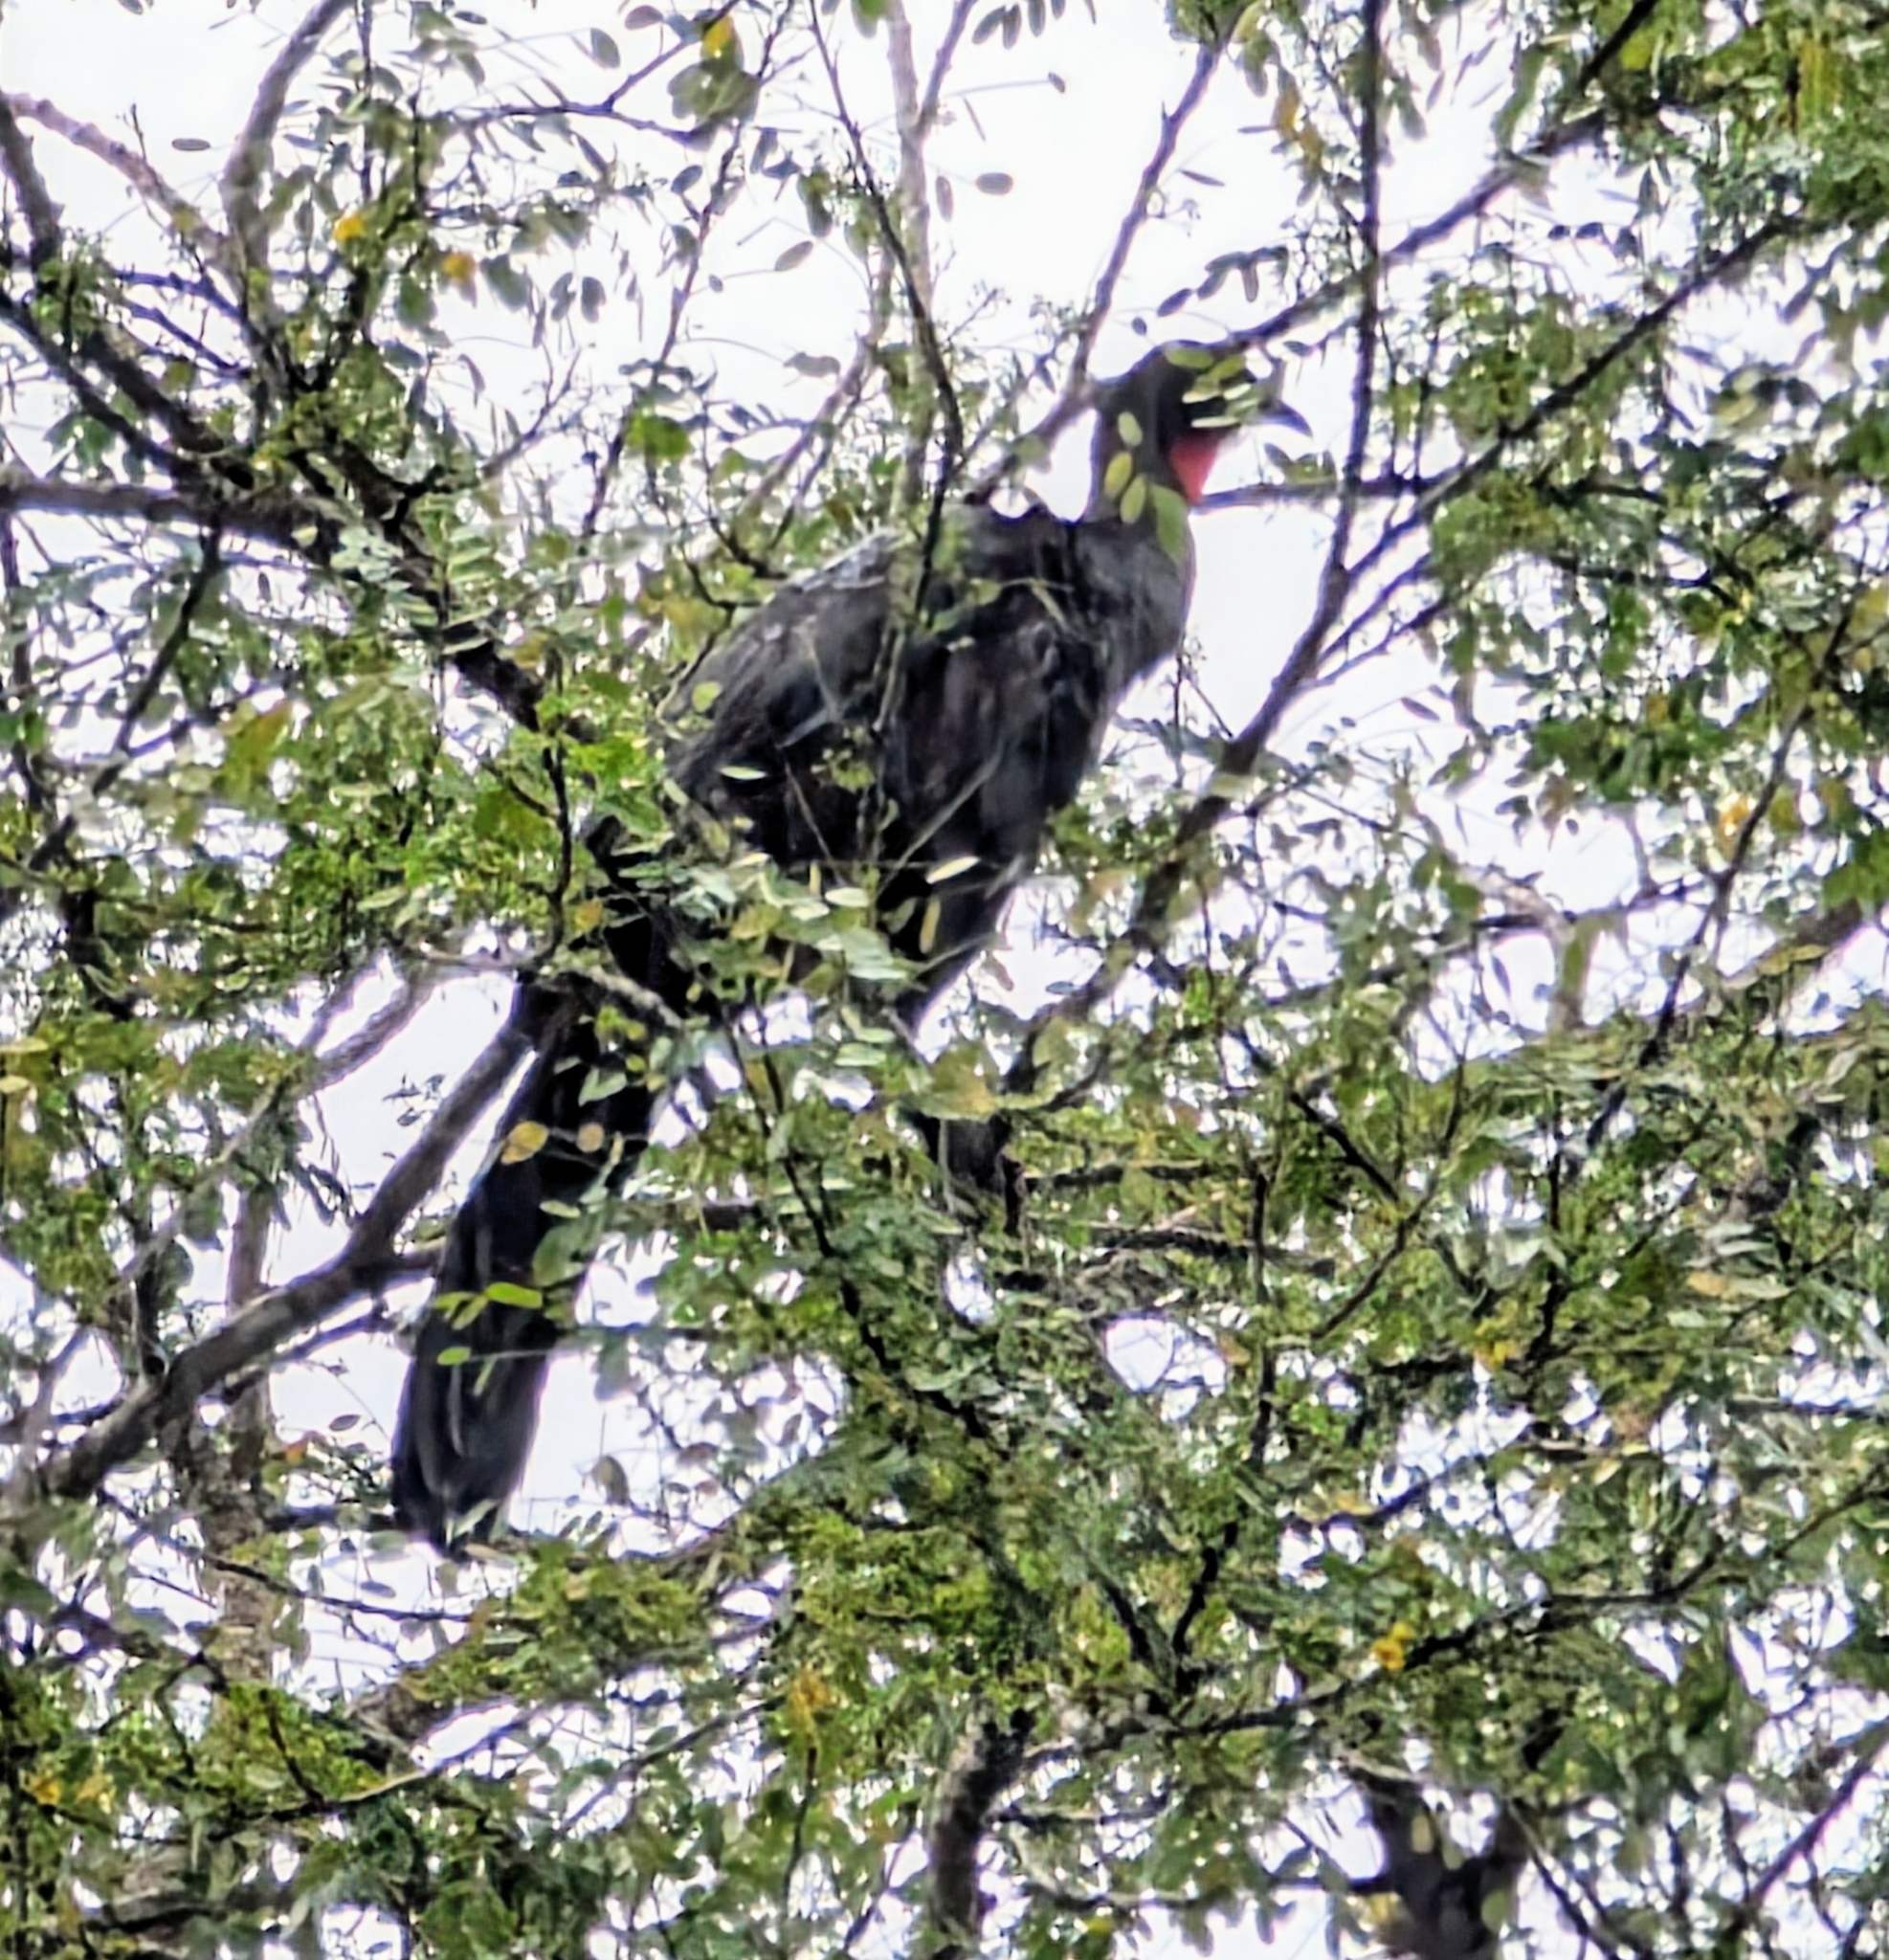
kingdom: Animalia
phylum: Chordata
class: Aves
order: Galliformes
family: Cracidae
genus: Penelope
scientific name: Penelope purpurascens
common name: Crested guan
